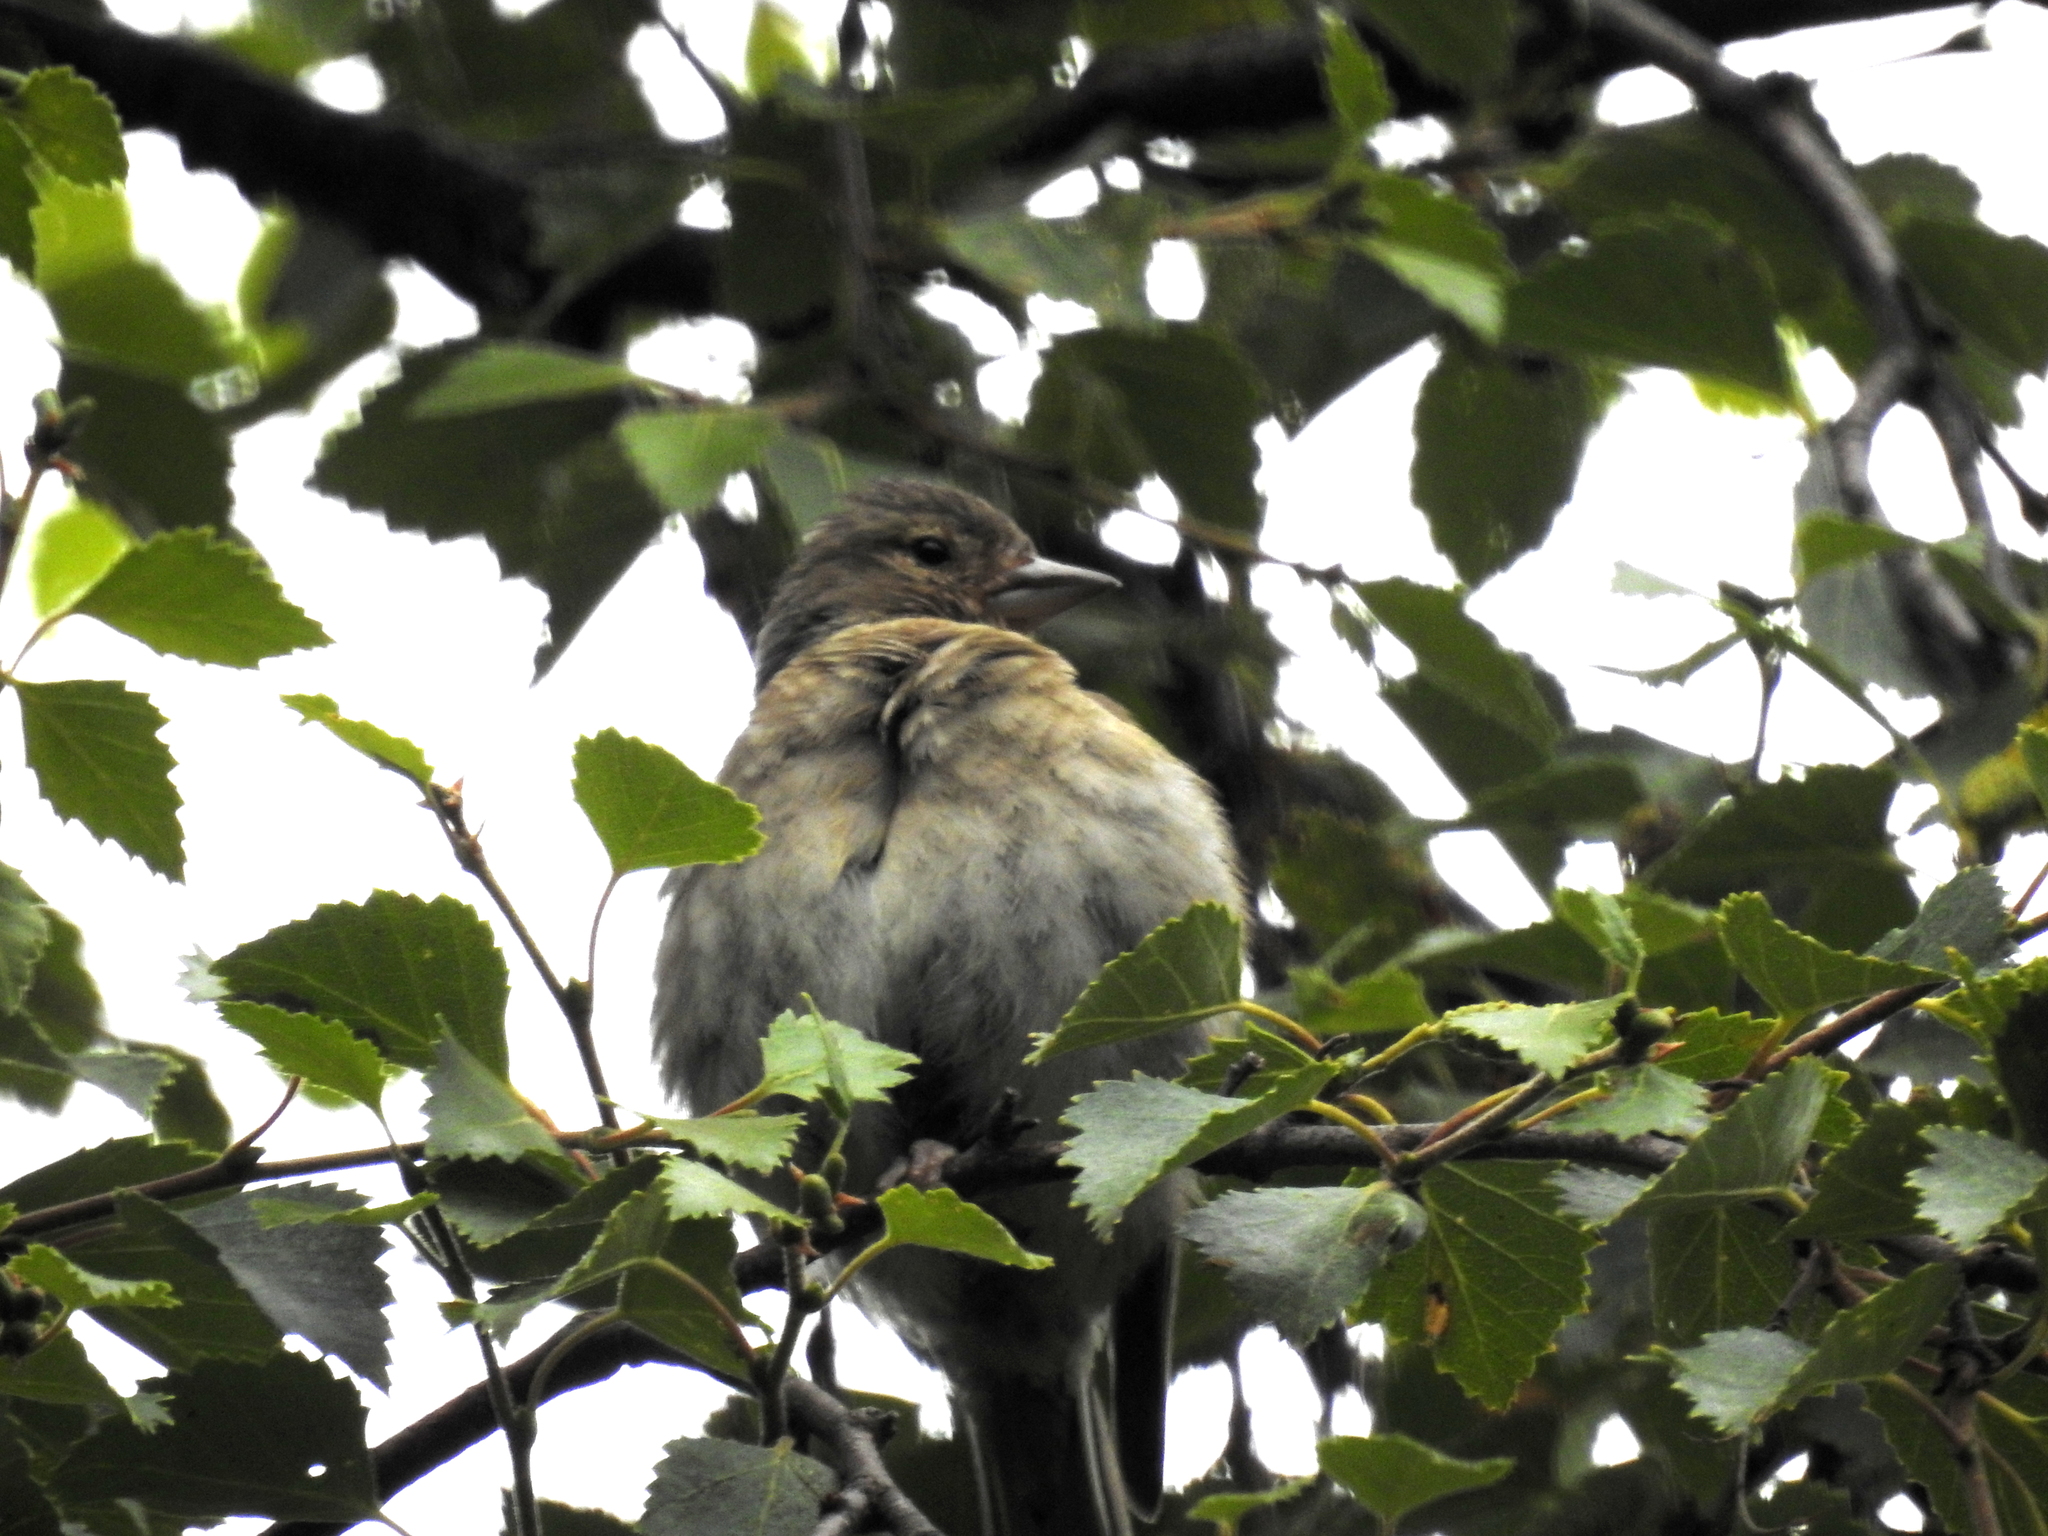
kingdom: Animalia
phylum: Chordata
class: Aves
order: Passeriformes
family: Fringillidae
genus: Fringilla
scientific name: Fringilla coelebs
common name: Common chaffinch
